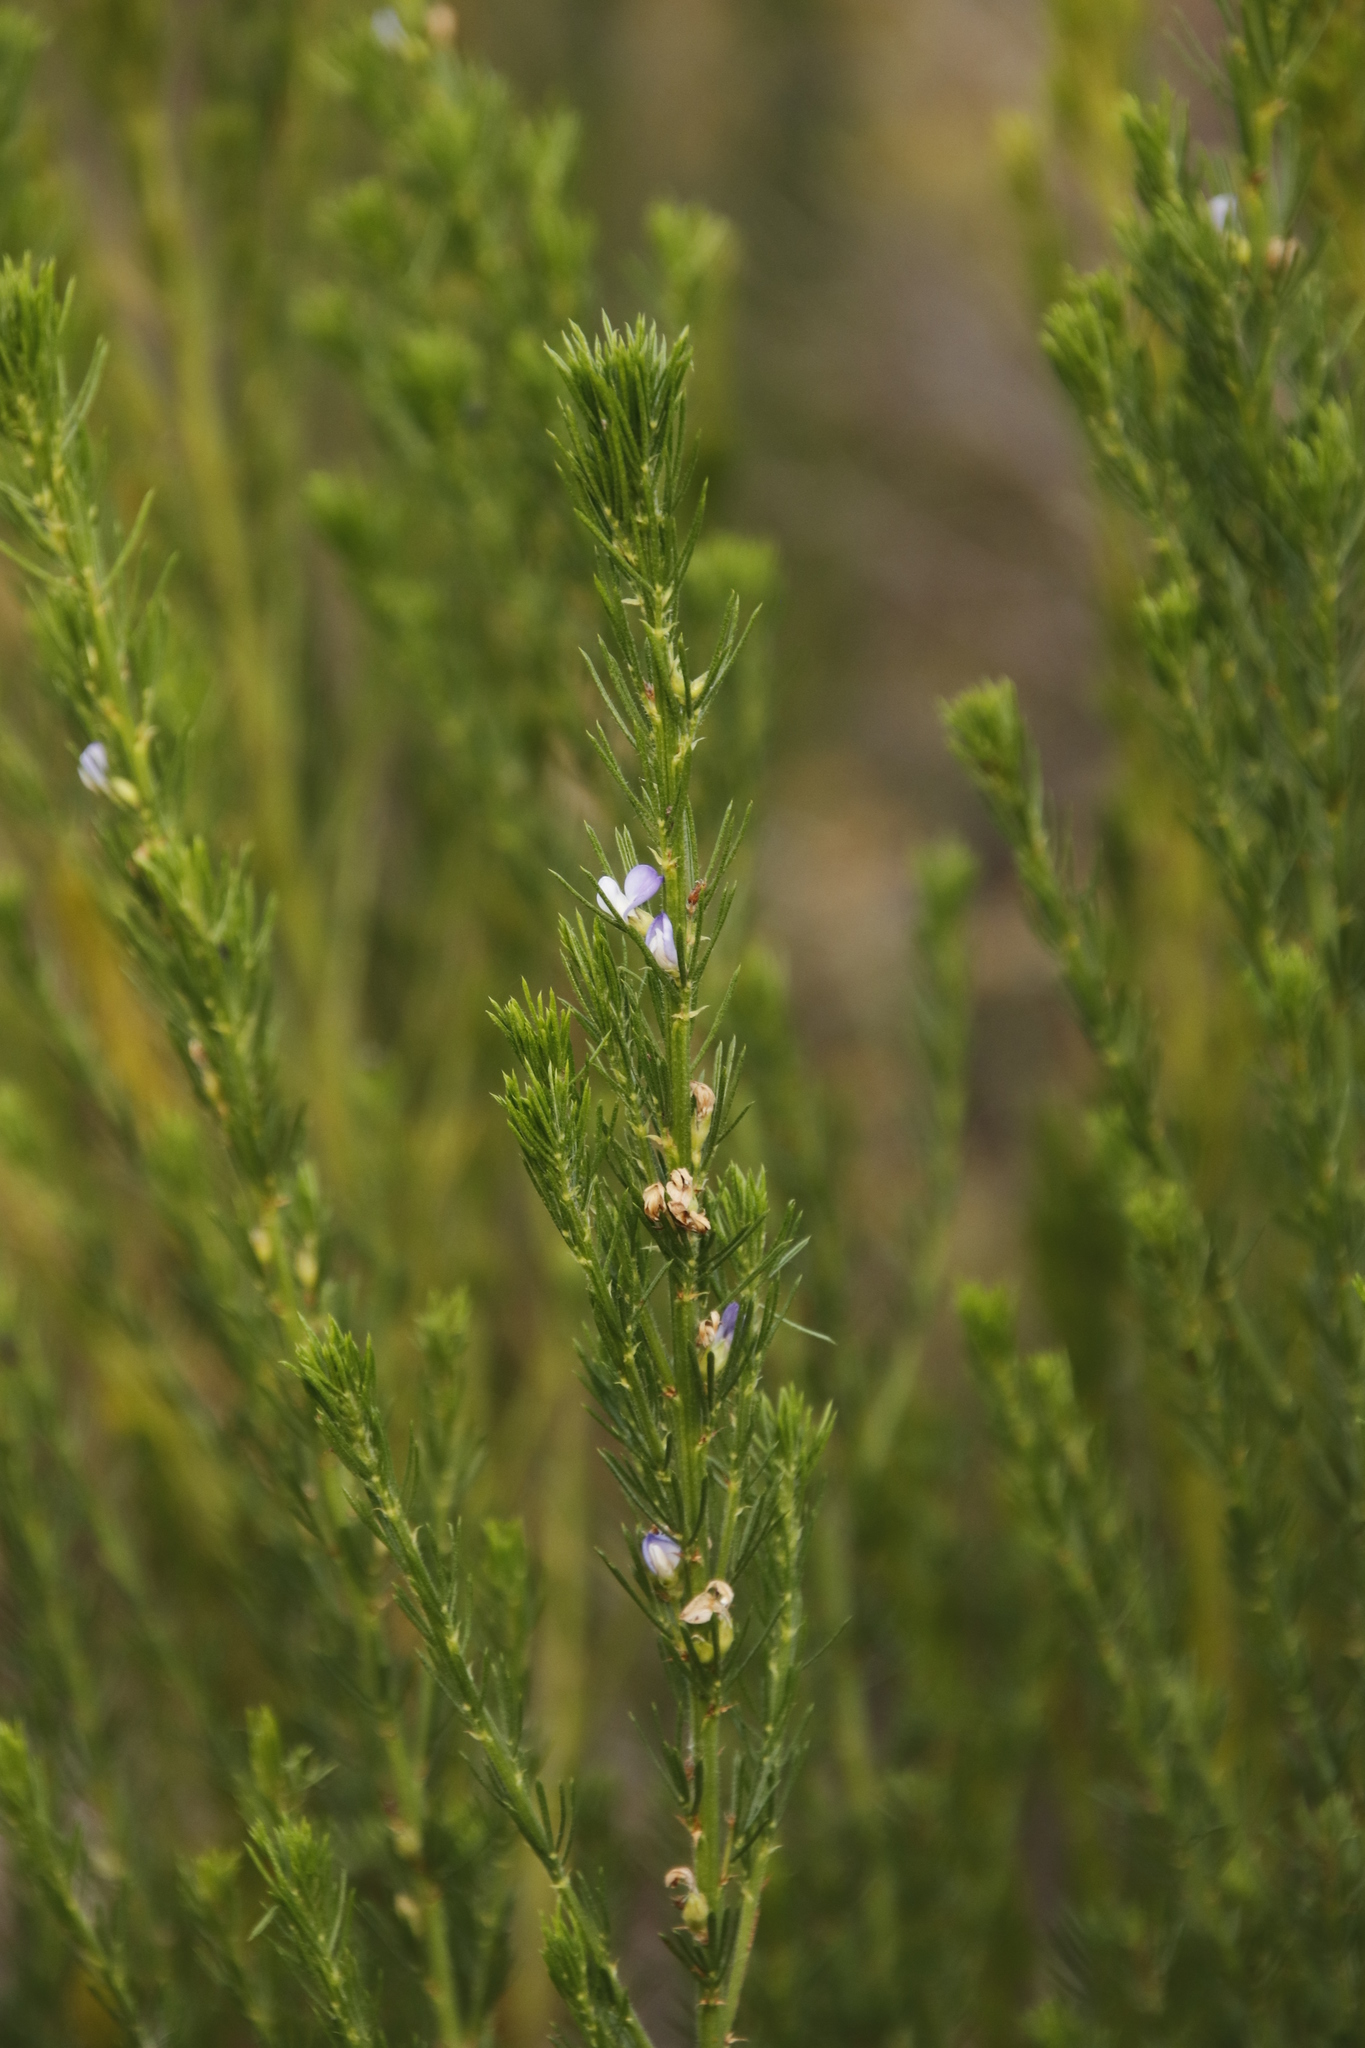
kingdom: Plantae
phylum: Tracheophyta
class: Magnoliopsida
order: Fabales
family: Fabaceae
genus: Psoralea
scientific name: Psoralea pinnata
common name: African scurfpea
